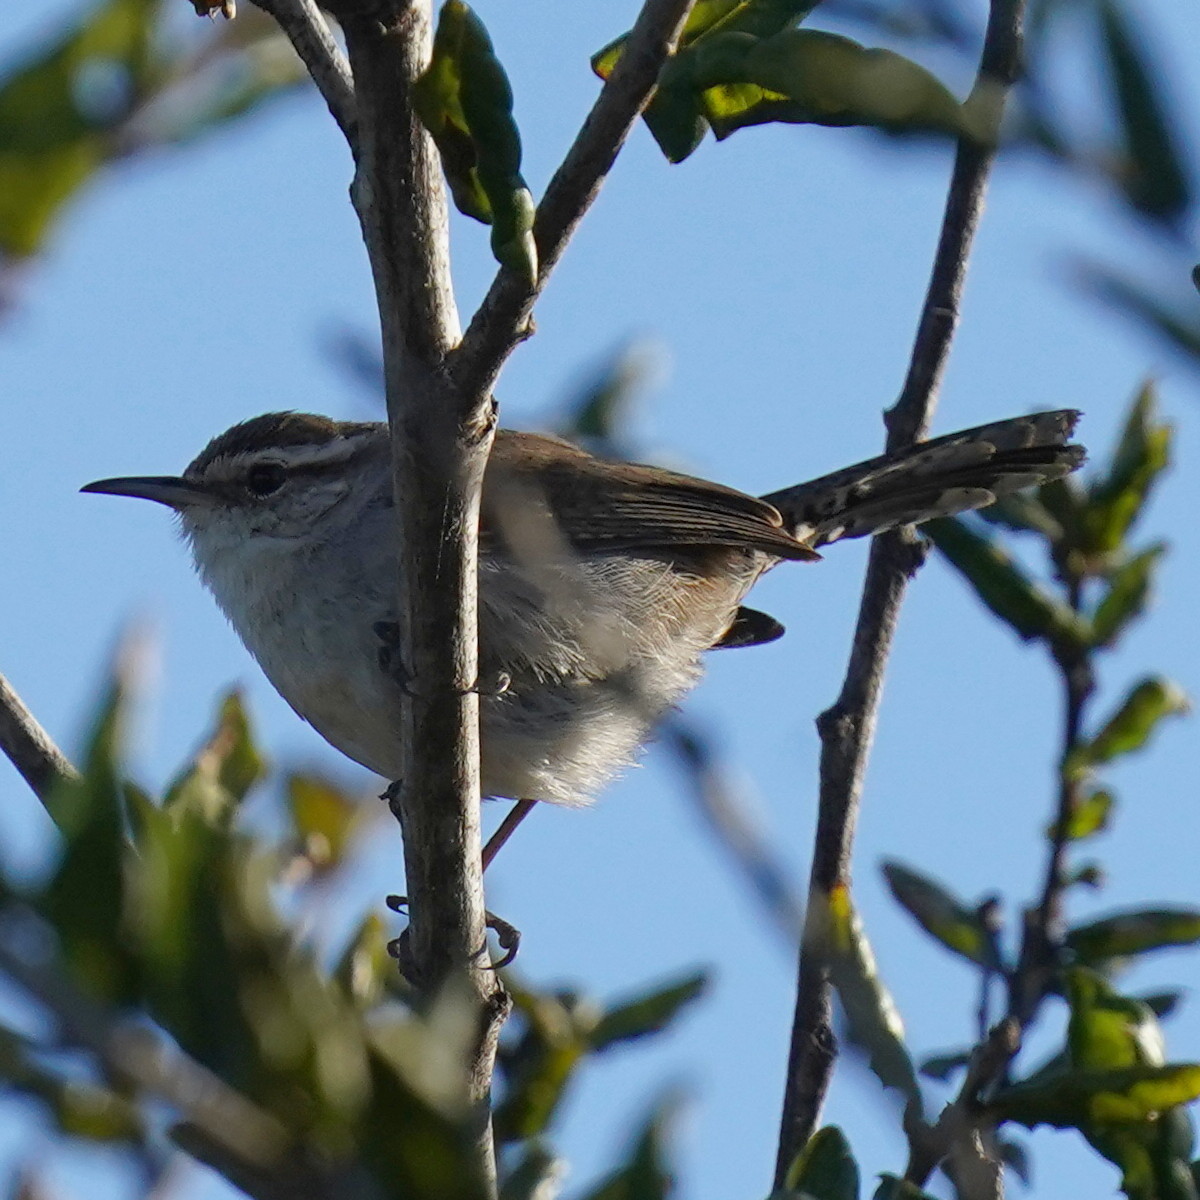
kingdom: Animalia
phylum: Chordata
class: Aves
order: Passeriformes
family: Troglodytidae
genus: Thryomanes
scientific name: Thryomanes bewickii
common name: Bewick's wren
